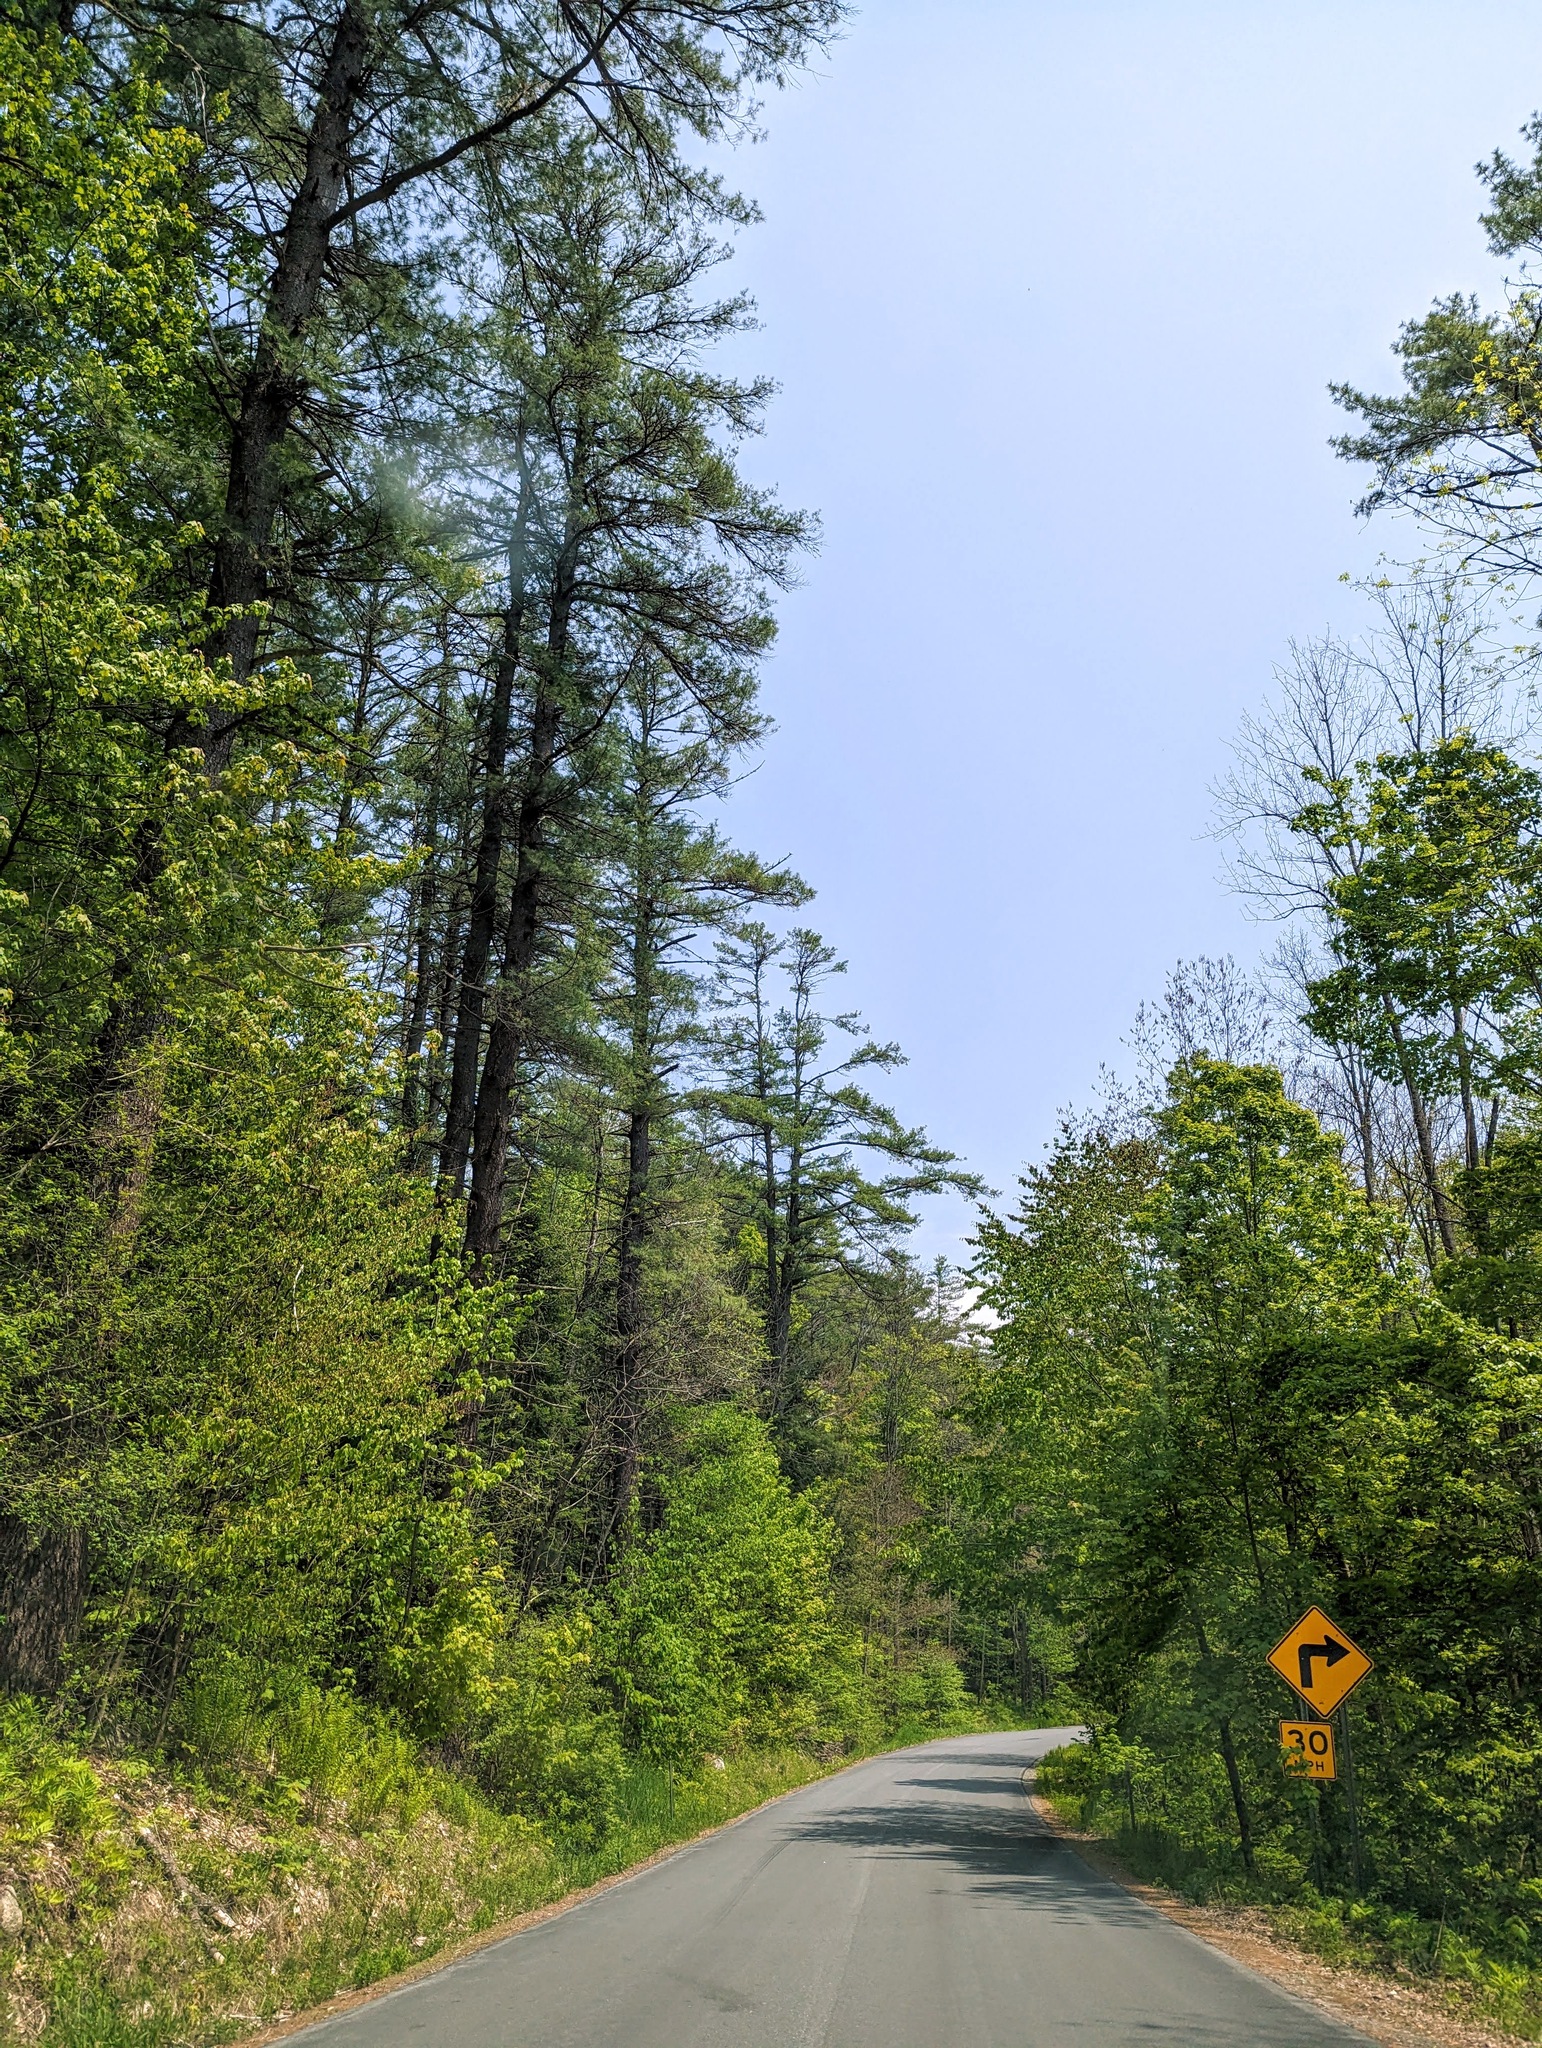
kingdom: Plantae
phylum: Tracheophyta
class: Pinopsida
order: Pinales
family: Pinaceae
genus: Pinus
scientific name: Pinus strobus
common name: Weymouth pine
